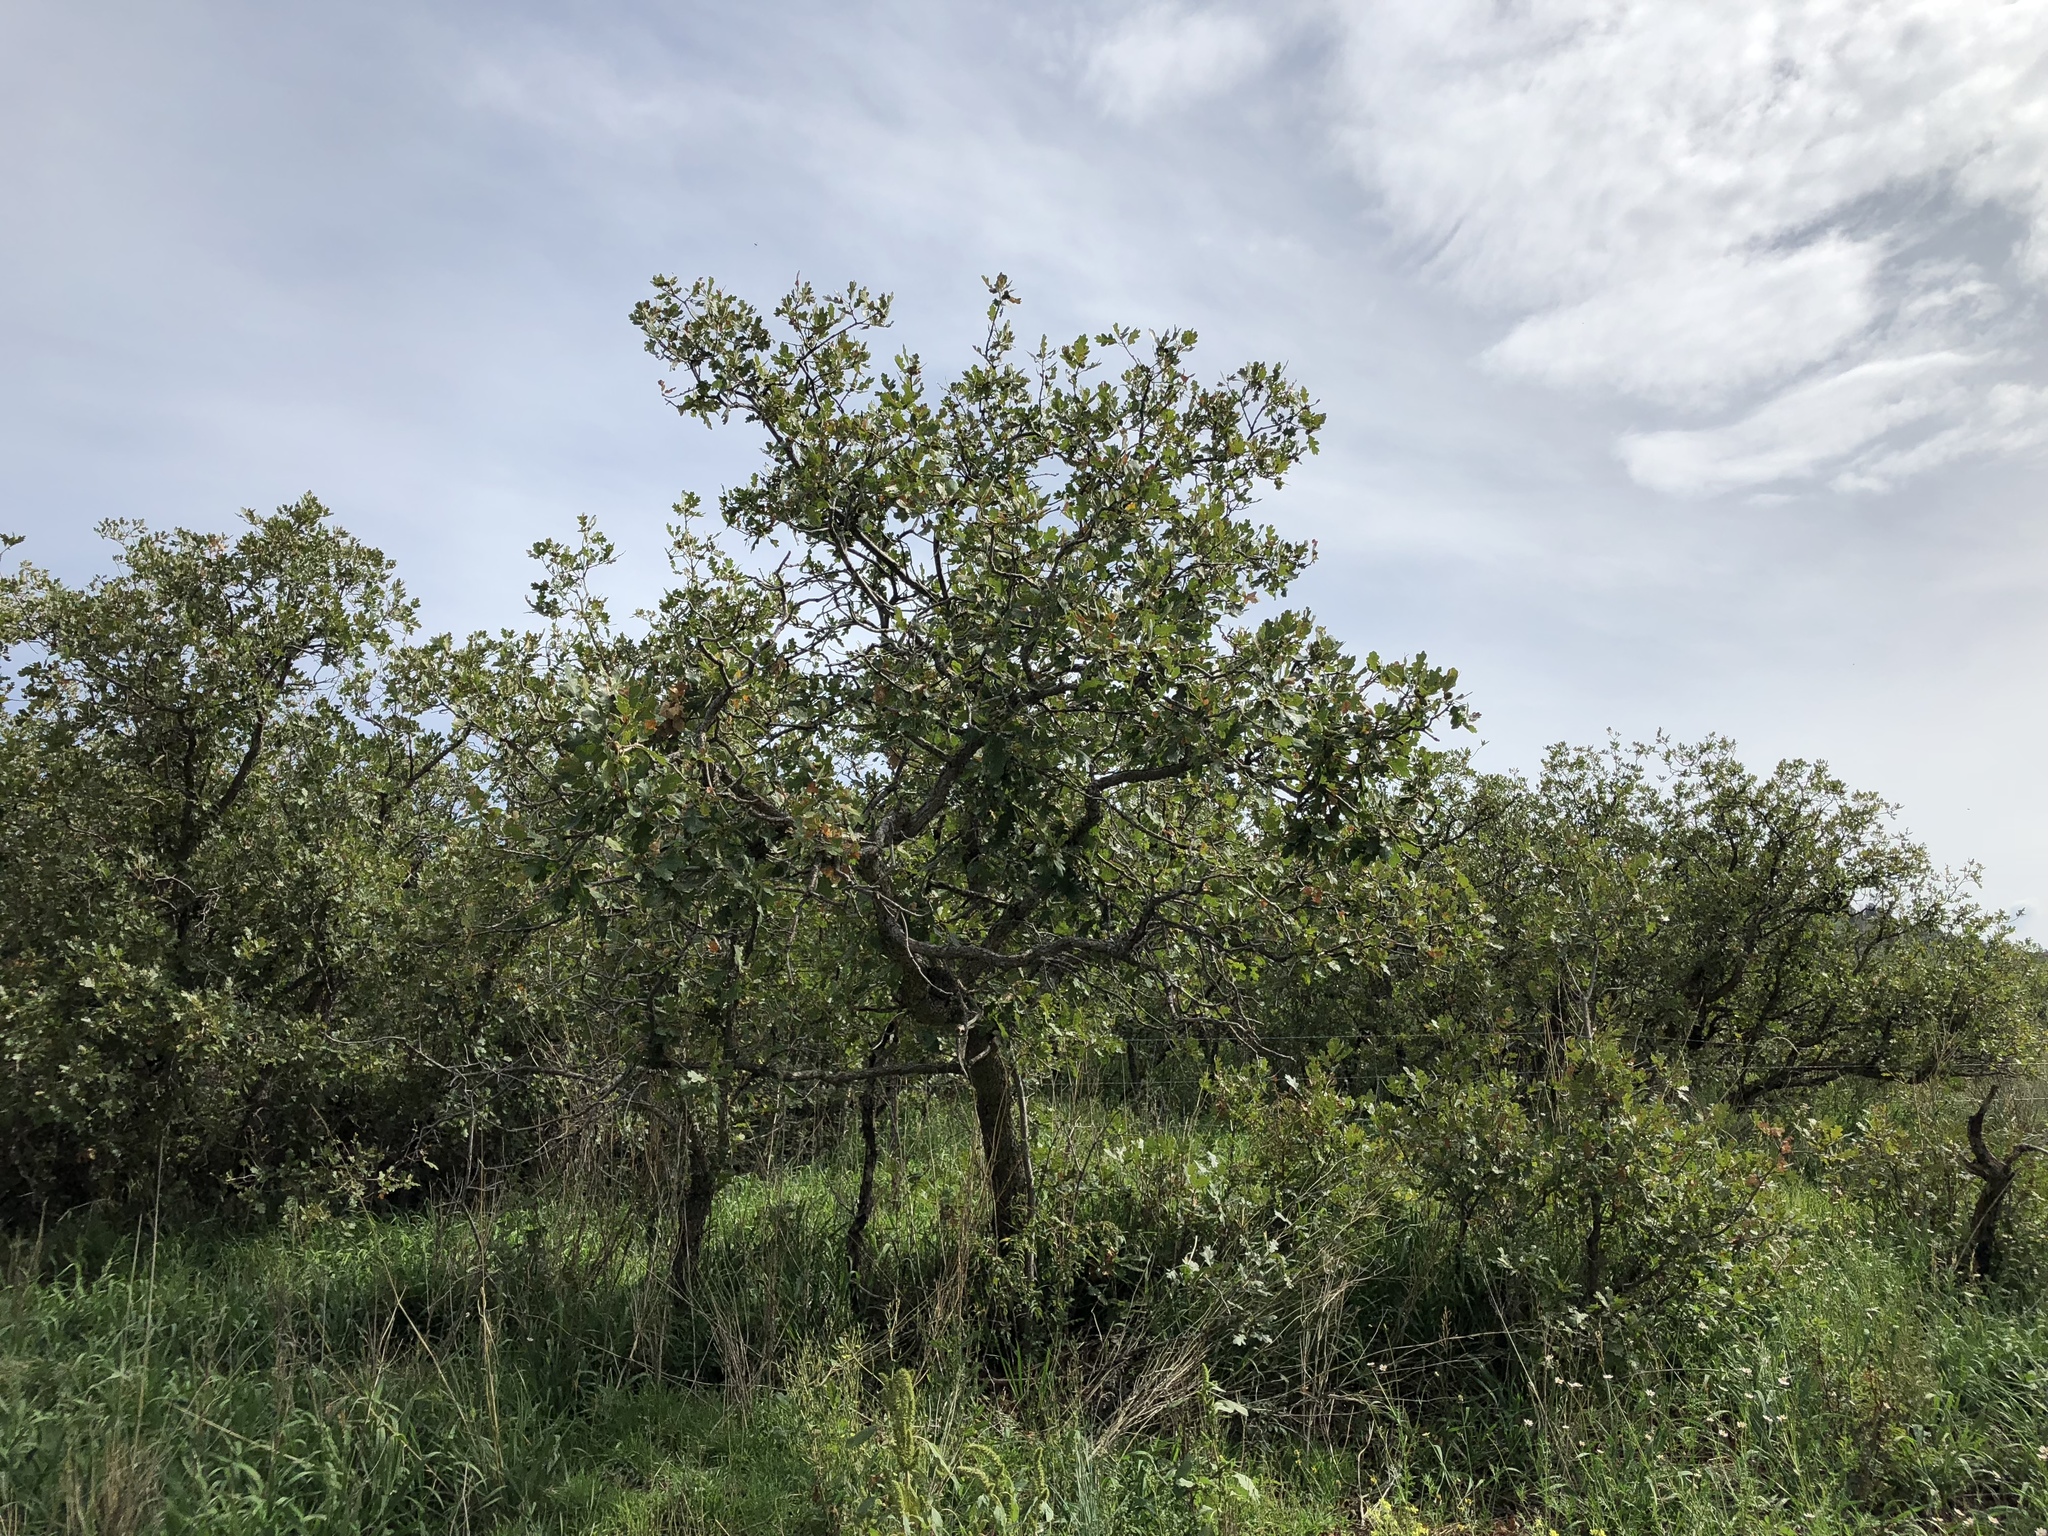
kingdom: Plantae
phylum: Tracheophyta
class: Magnoliopsida
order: Fagales
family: Fagaceae
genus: Quercus
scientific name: Quercus gambelii
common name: Gambel oak
